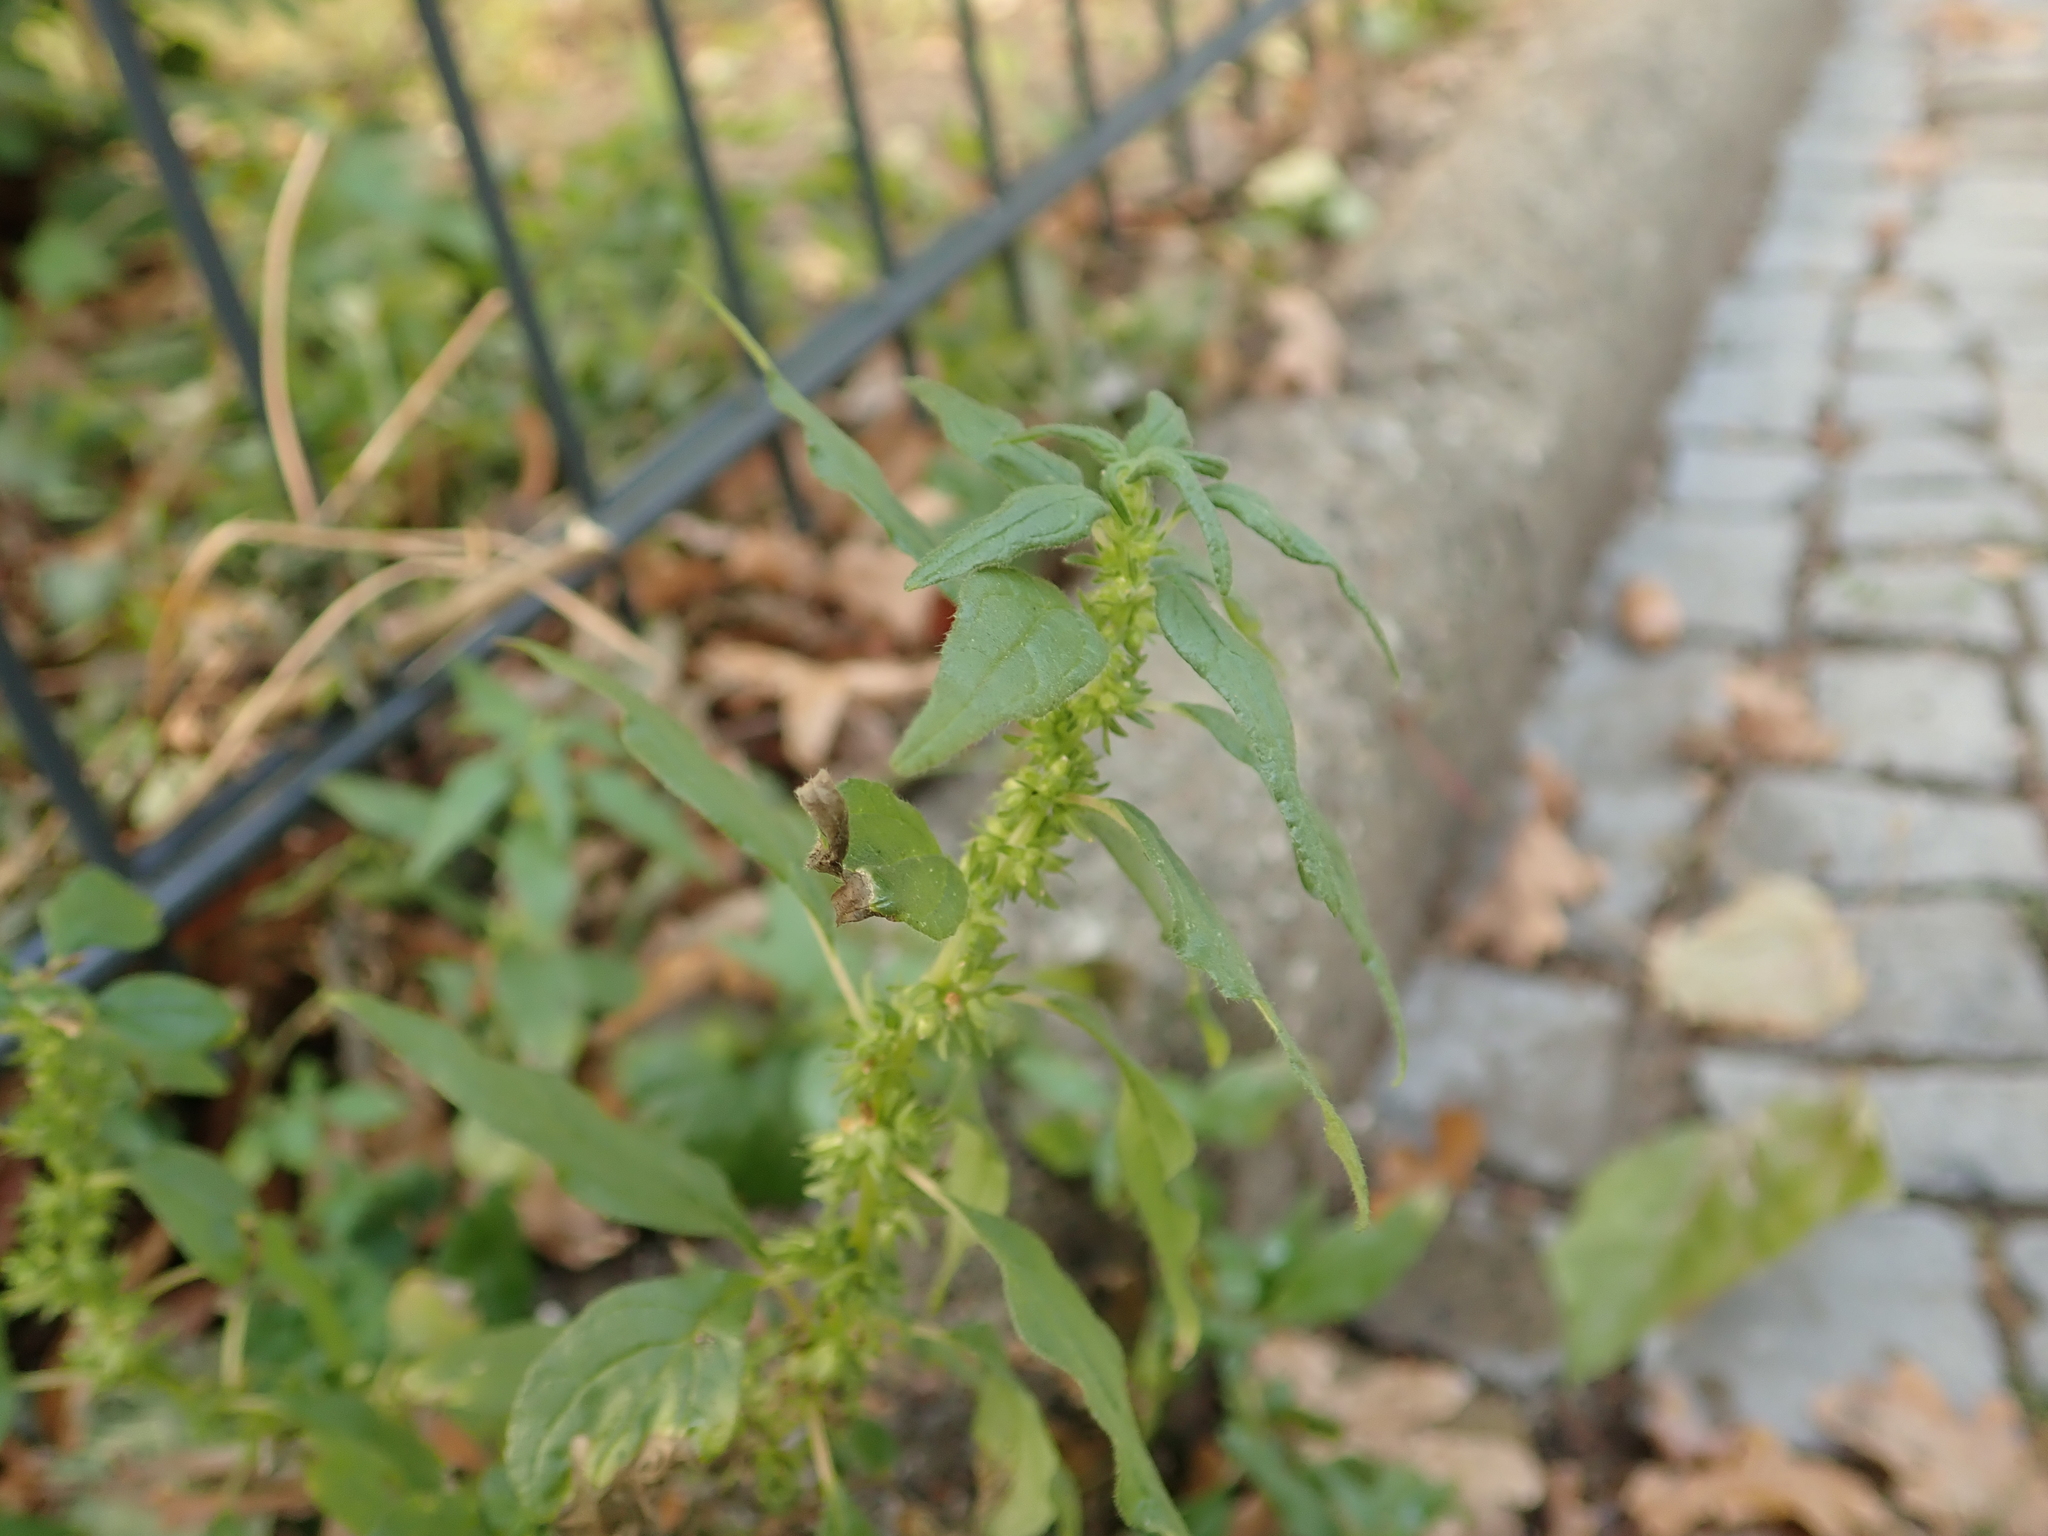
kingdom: Plantae
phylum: Tracheophyta
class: Magnoliopsida
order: Rosales
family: Urticaceae
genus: Parietaria
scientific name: Parietaria pensylvanica
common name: Pennsylvania pellitory
